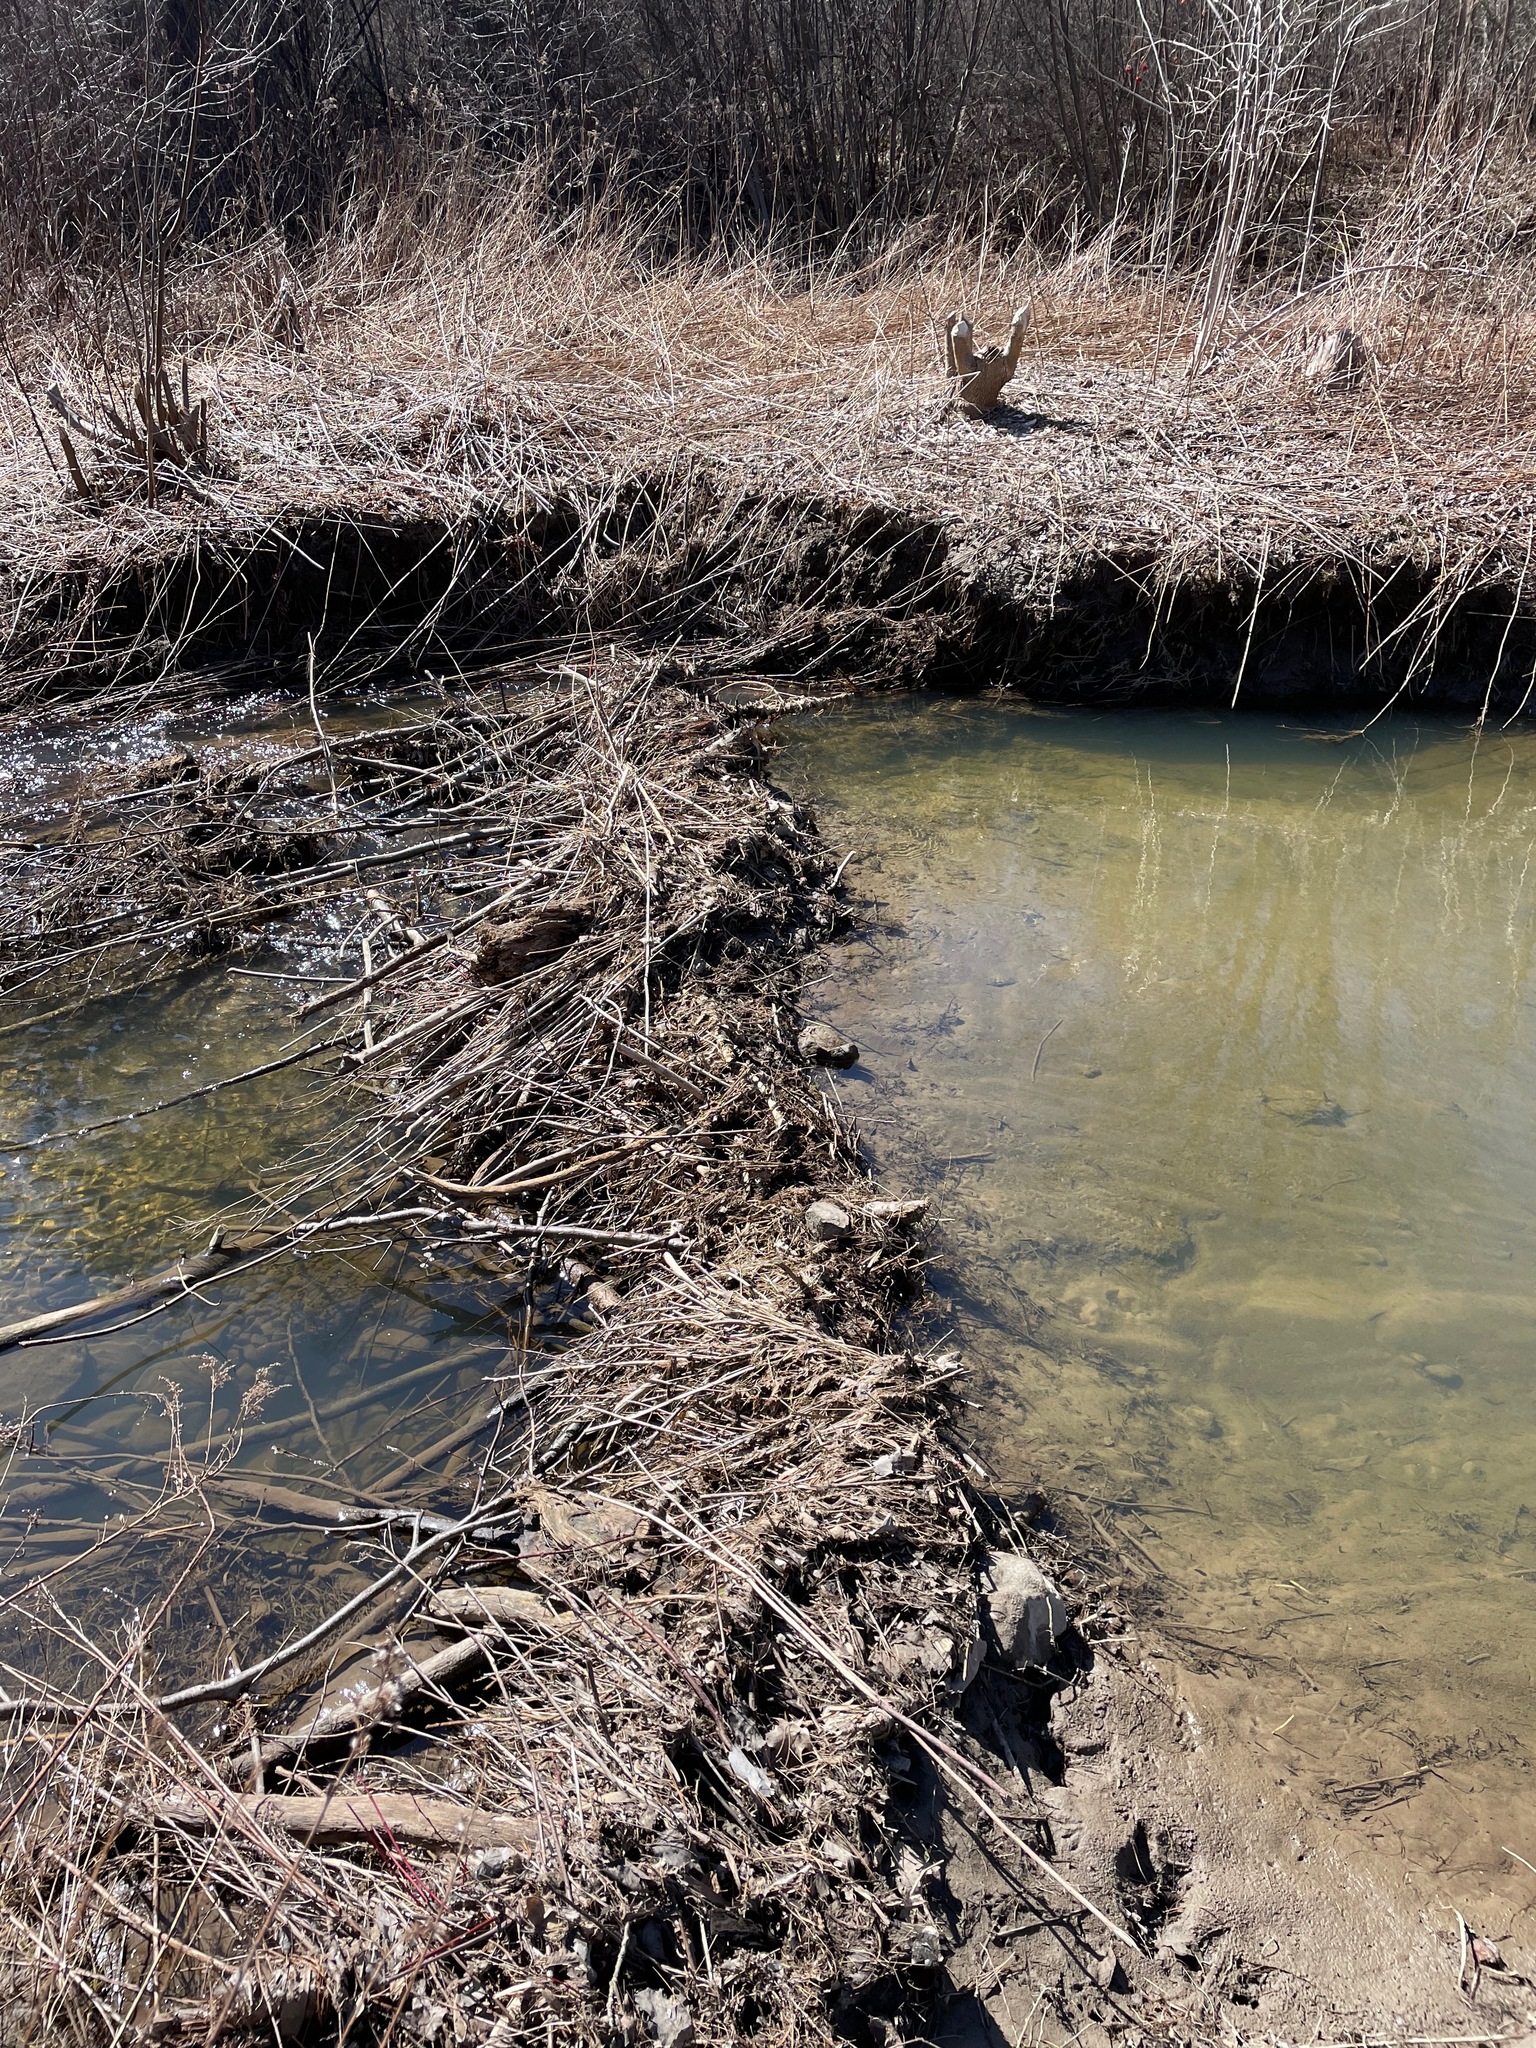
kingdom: Animalia
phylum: Chordata
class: Mammalia
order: Rodentia
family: Castoridae
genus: Castor
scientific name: Castor canadensis
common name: American beaver
